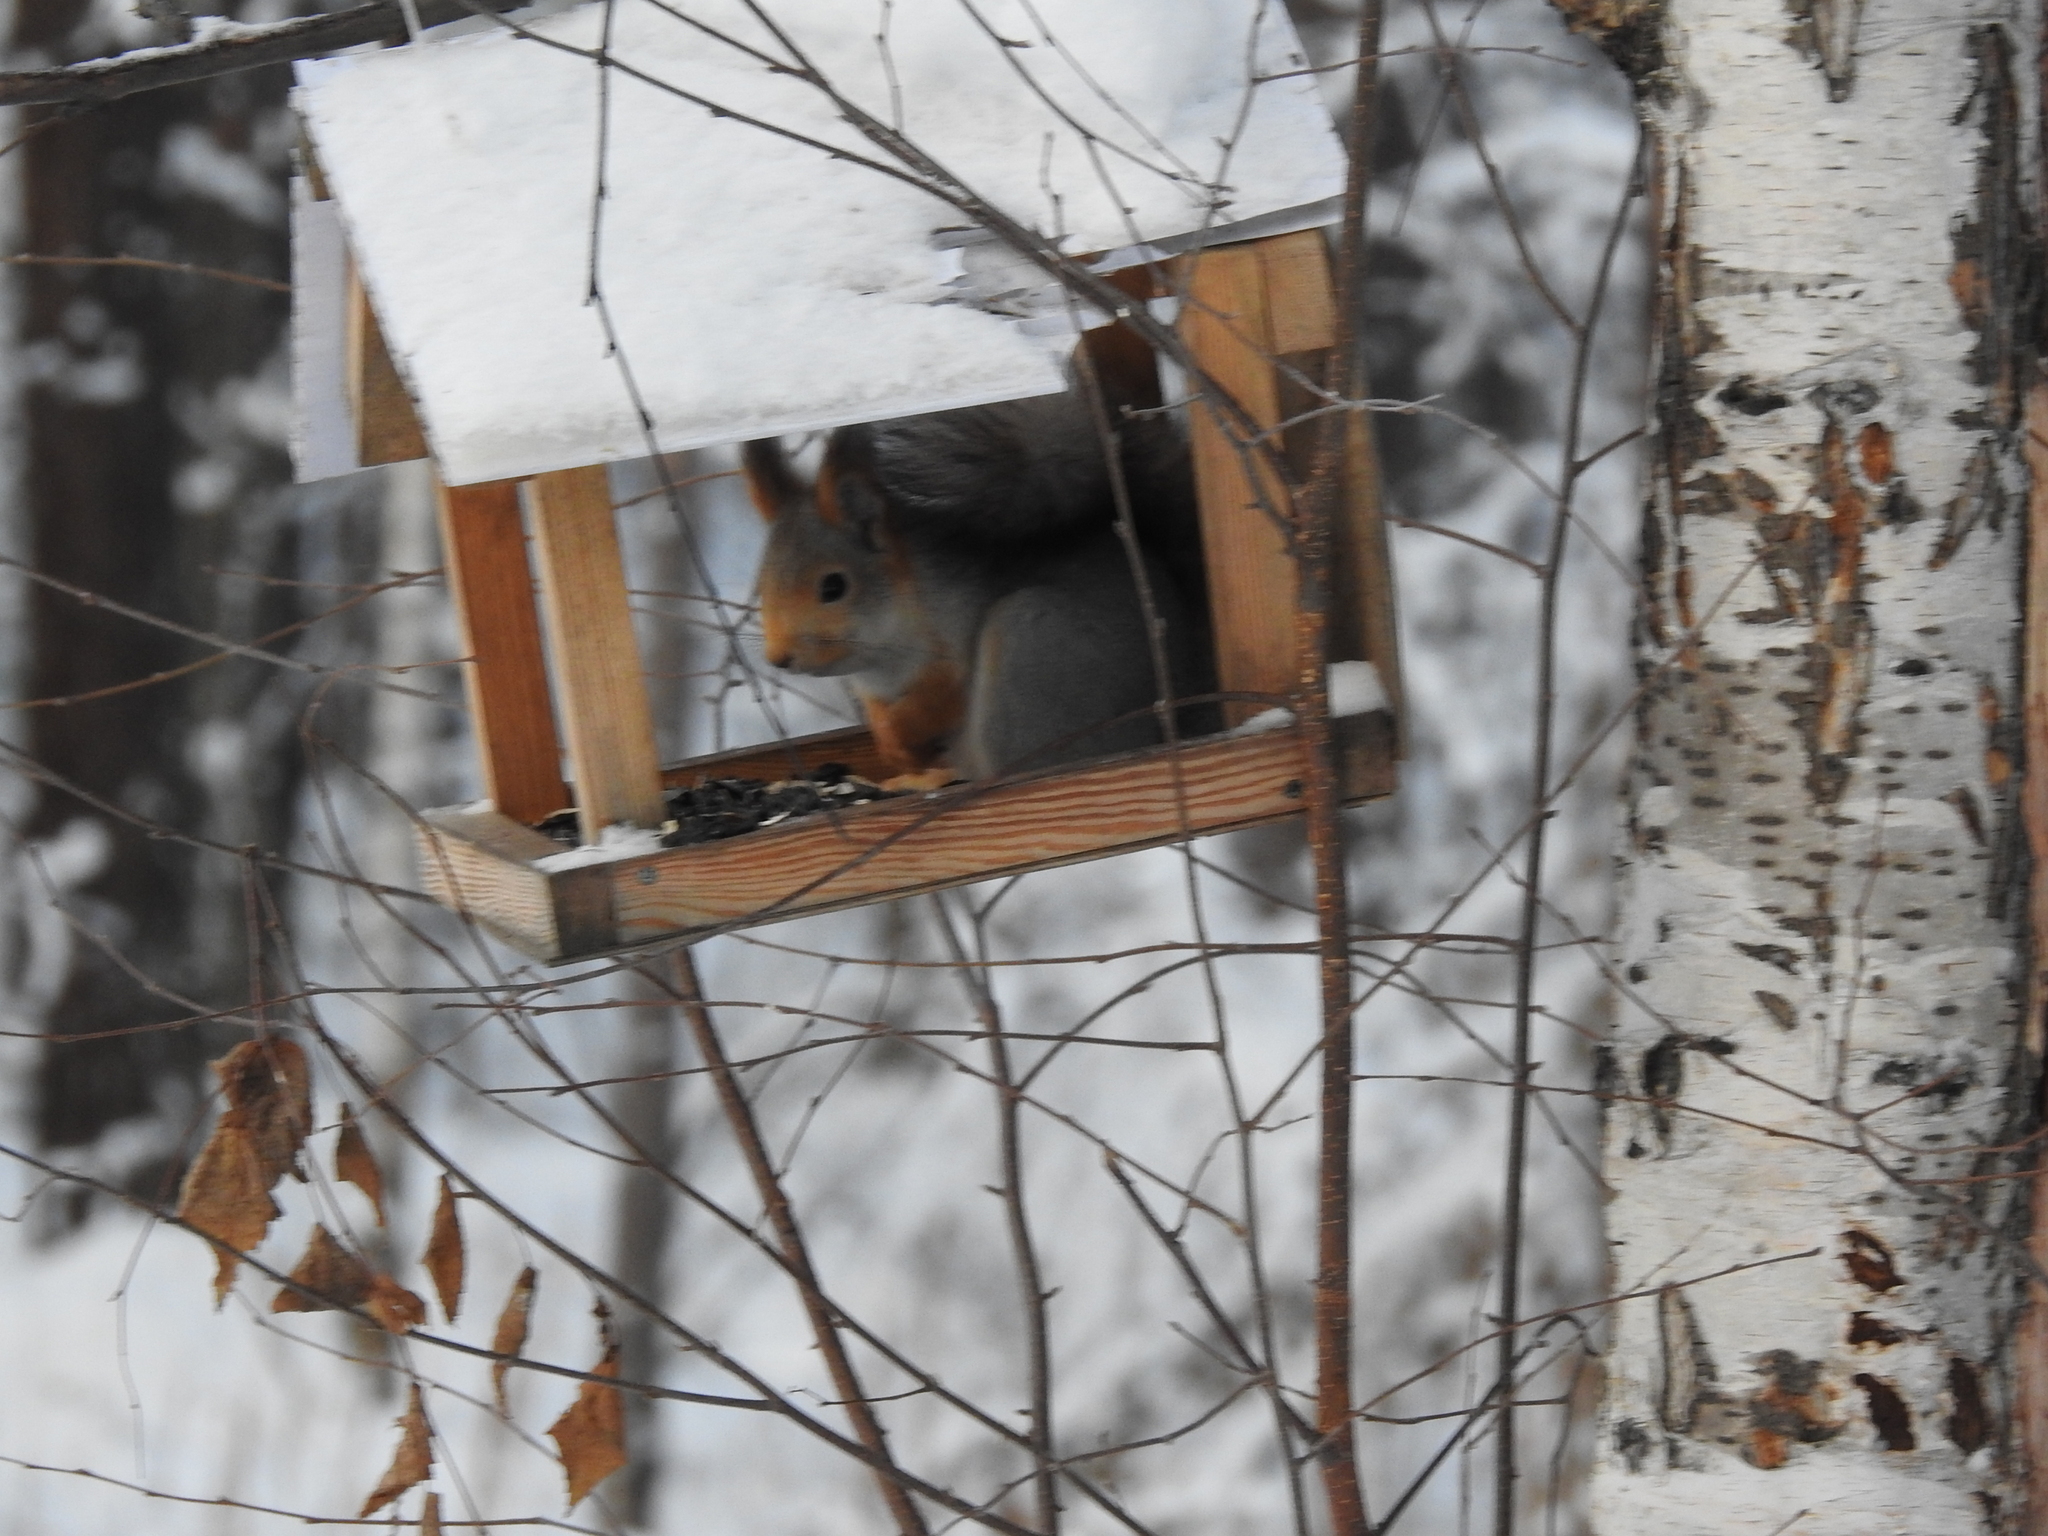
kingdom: Animalia
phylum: Chordata
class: Mammalia
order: Rodentia
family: Sciuridae
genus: Sciurus
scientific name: Sciurus vulgaris
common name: Eurasian red squirrel
